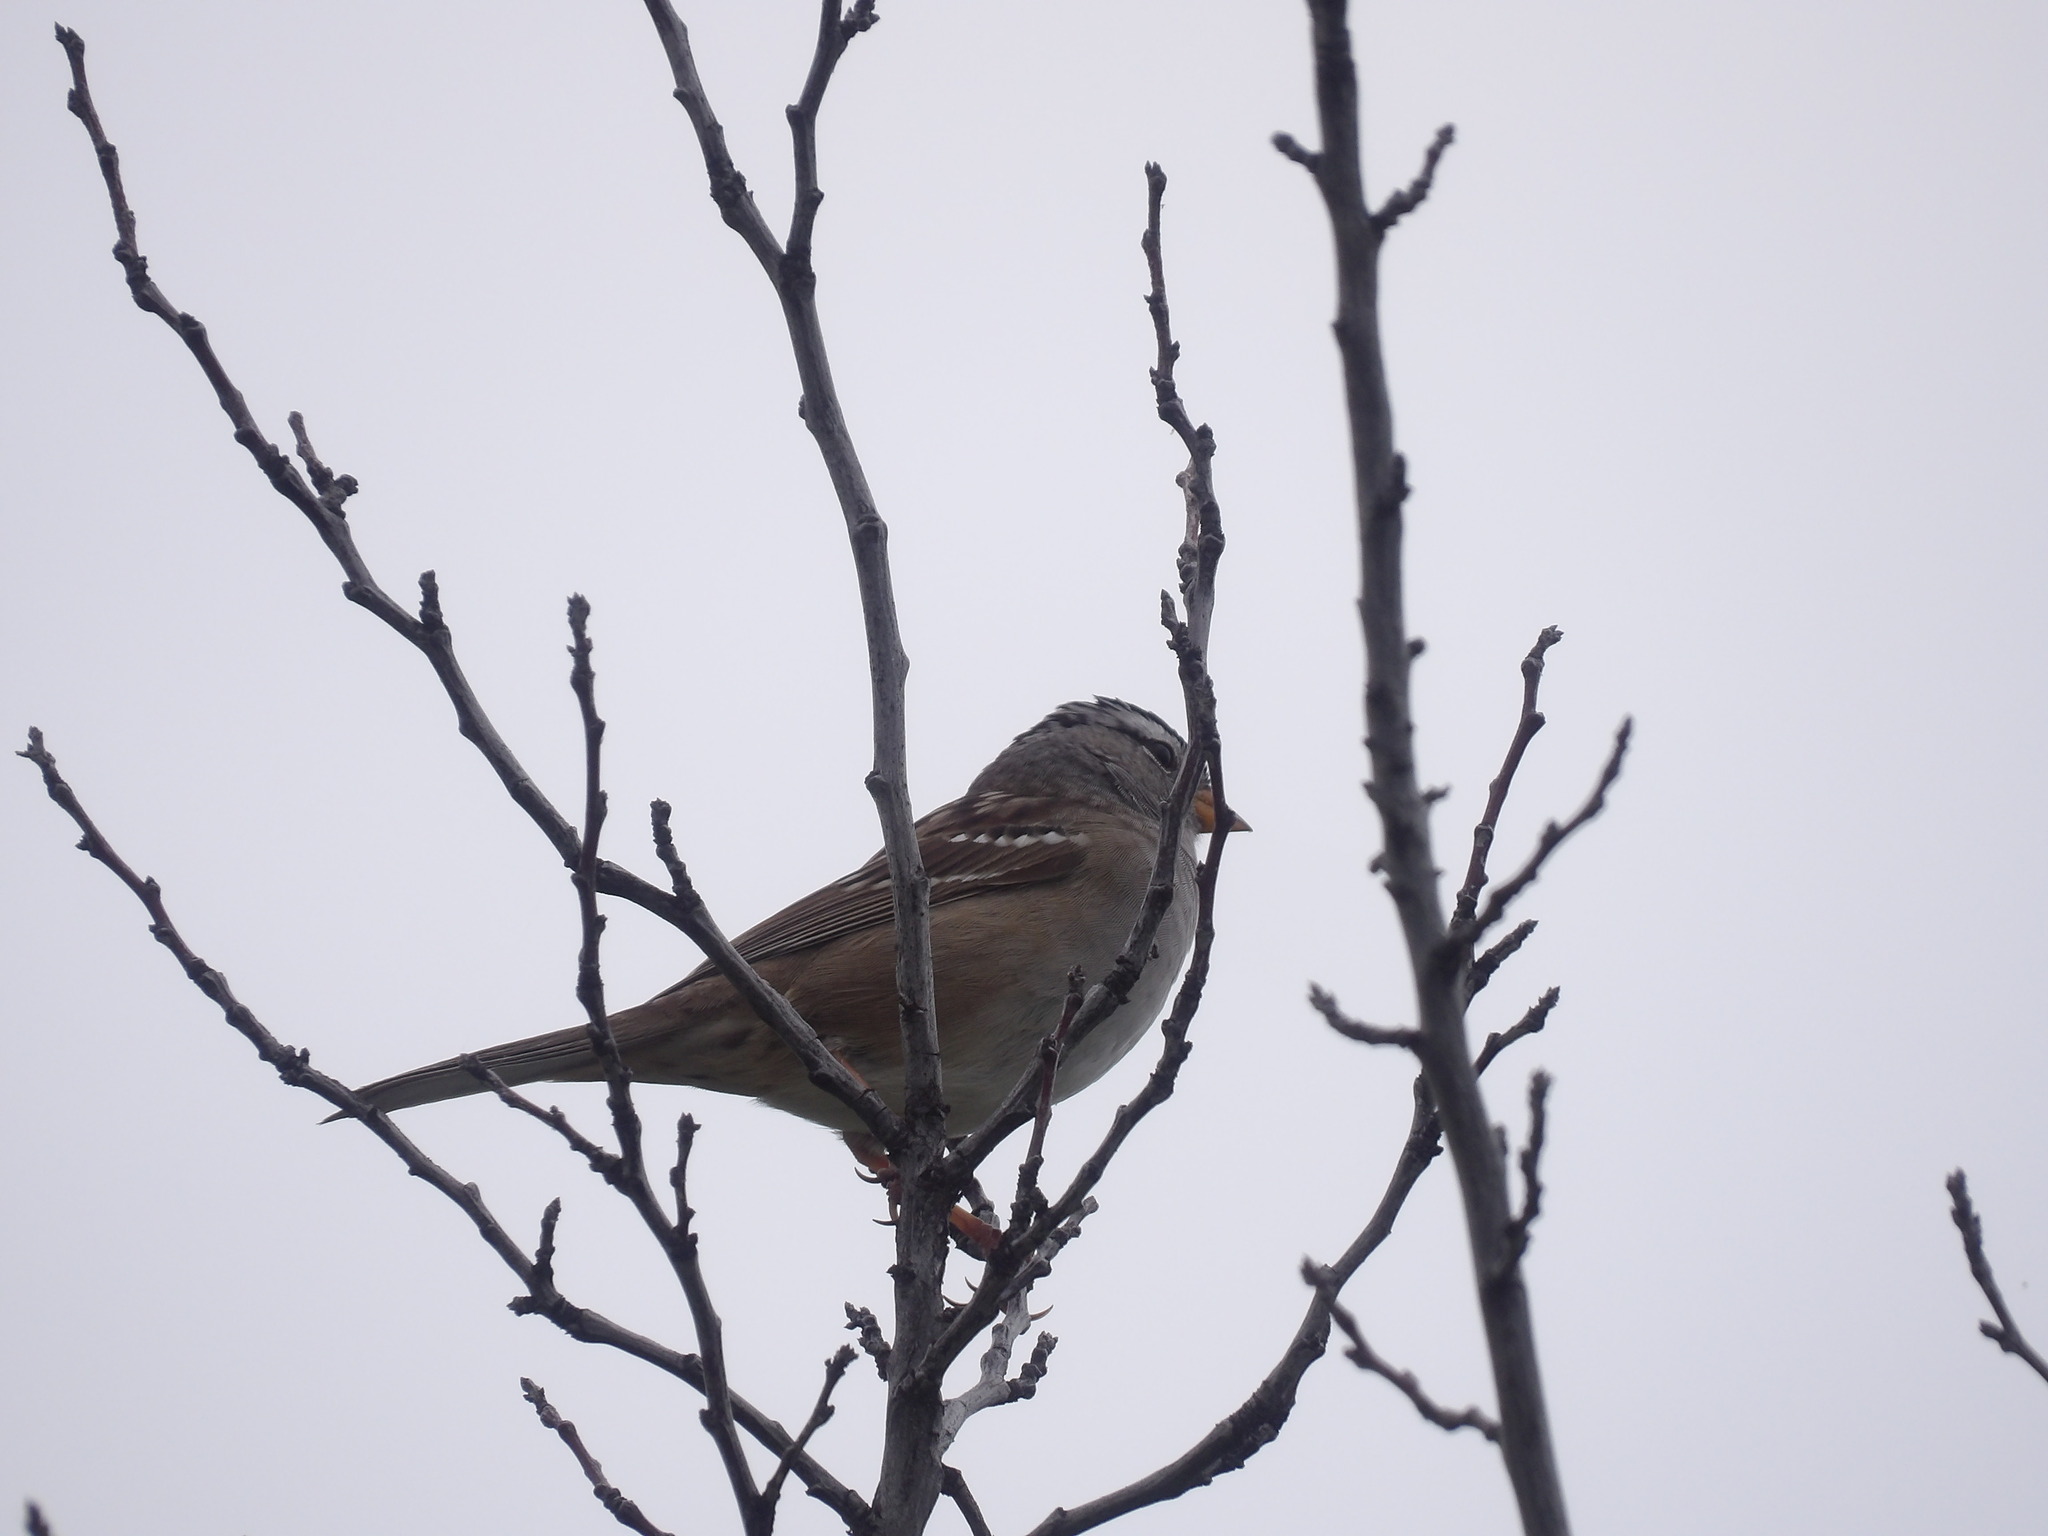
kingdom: Animalia
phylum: Chordata
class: Aves
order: Passeriformes
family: Passerellidae
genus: Zonotrichia
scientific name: Zonotrichia leucophrys
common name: White-crowned sparrow
